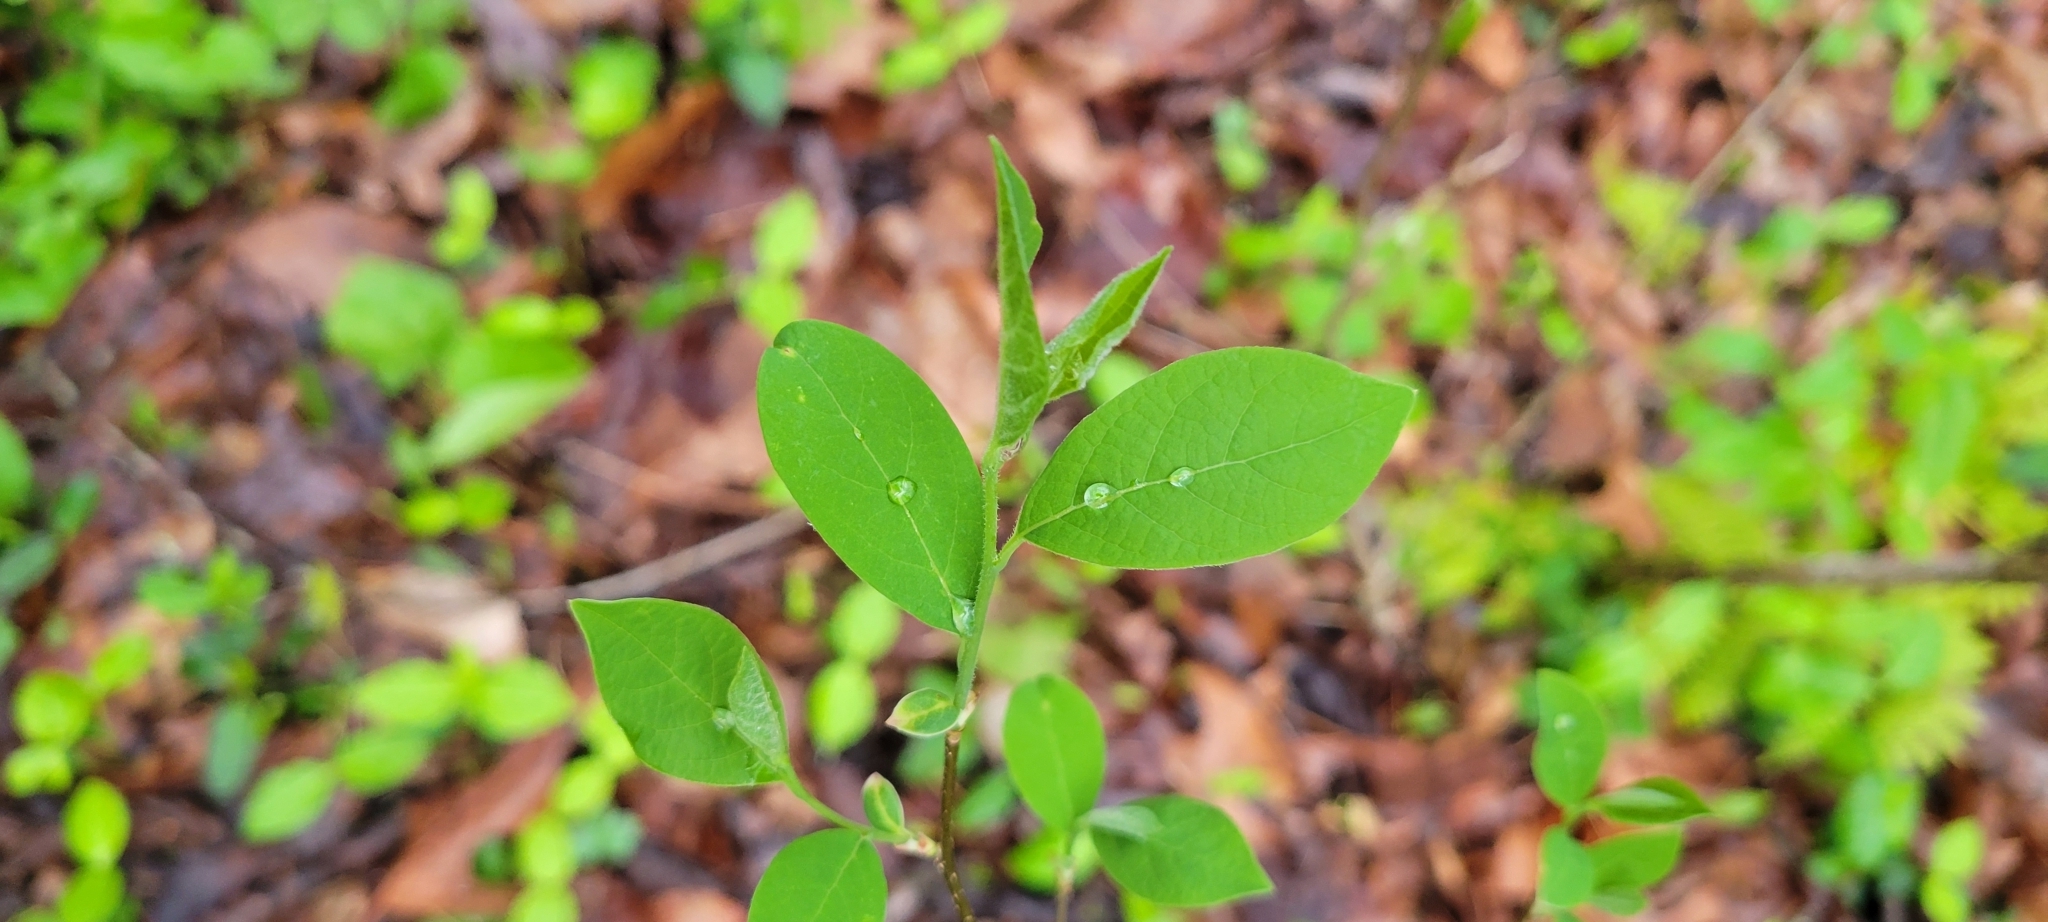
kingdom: Plantae
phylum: Tracheophyta
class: Magnoliopsida
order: Laurales
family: Lauraceae
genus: Lindera
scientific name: Lindera benzoin
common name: Spicebush
